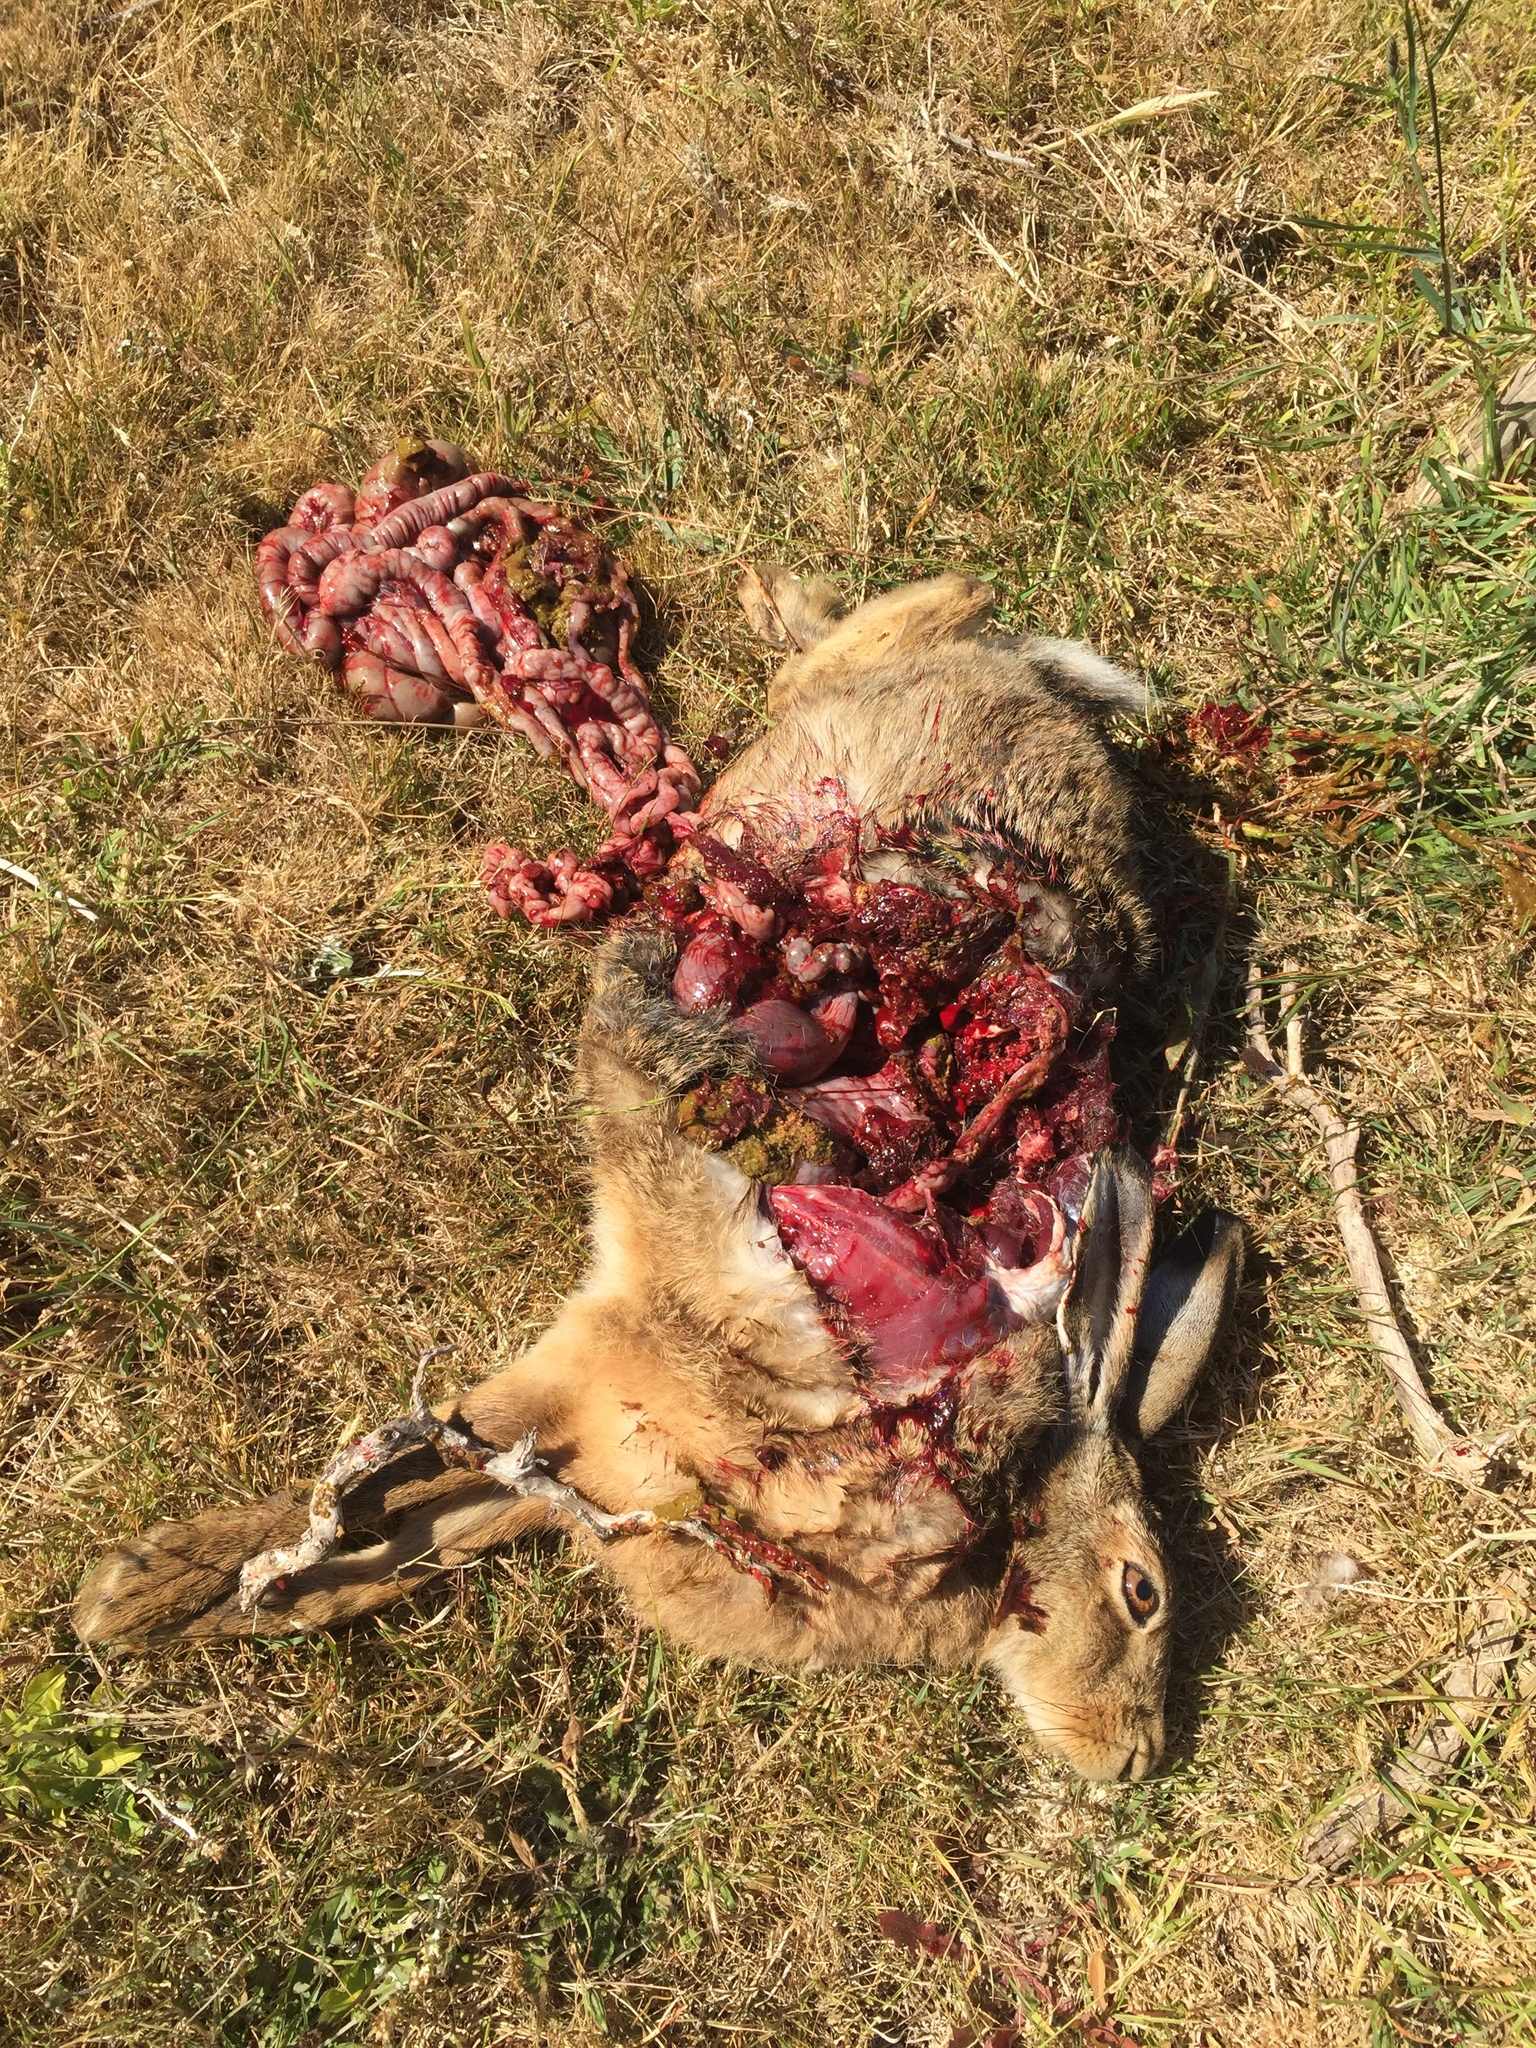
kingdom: Animalia
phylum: Chordata
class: Mammalia
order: Lagomorpha
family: Leporidae
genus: Lepus
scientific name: Lepus europaeus
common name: European hare
